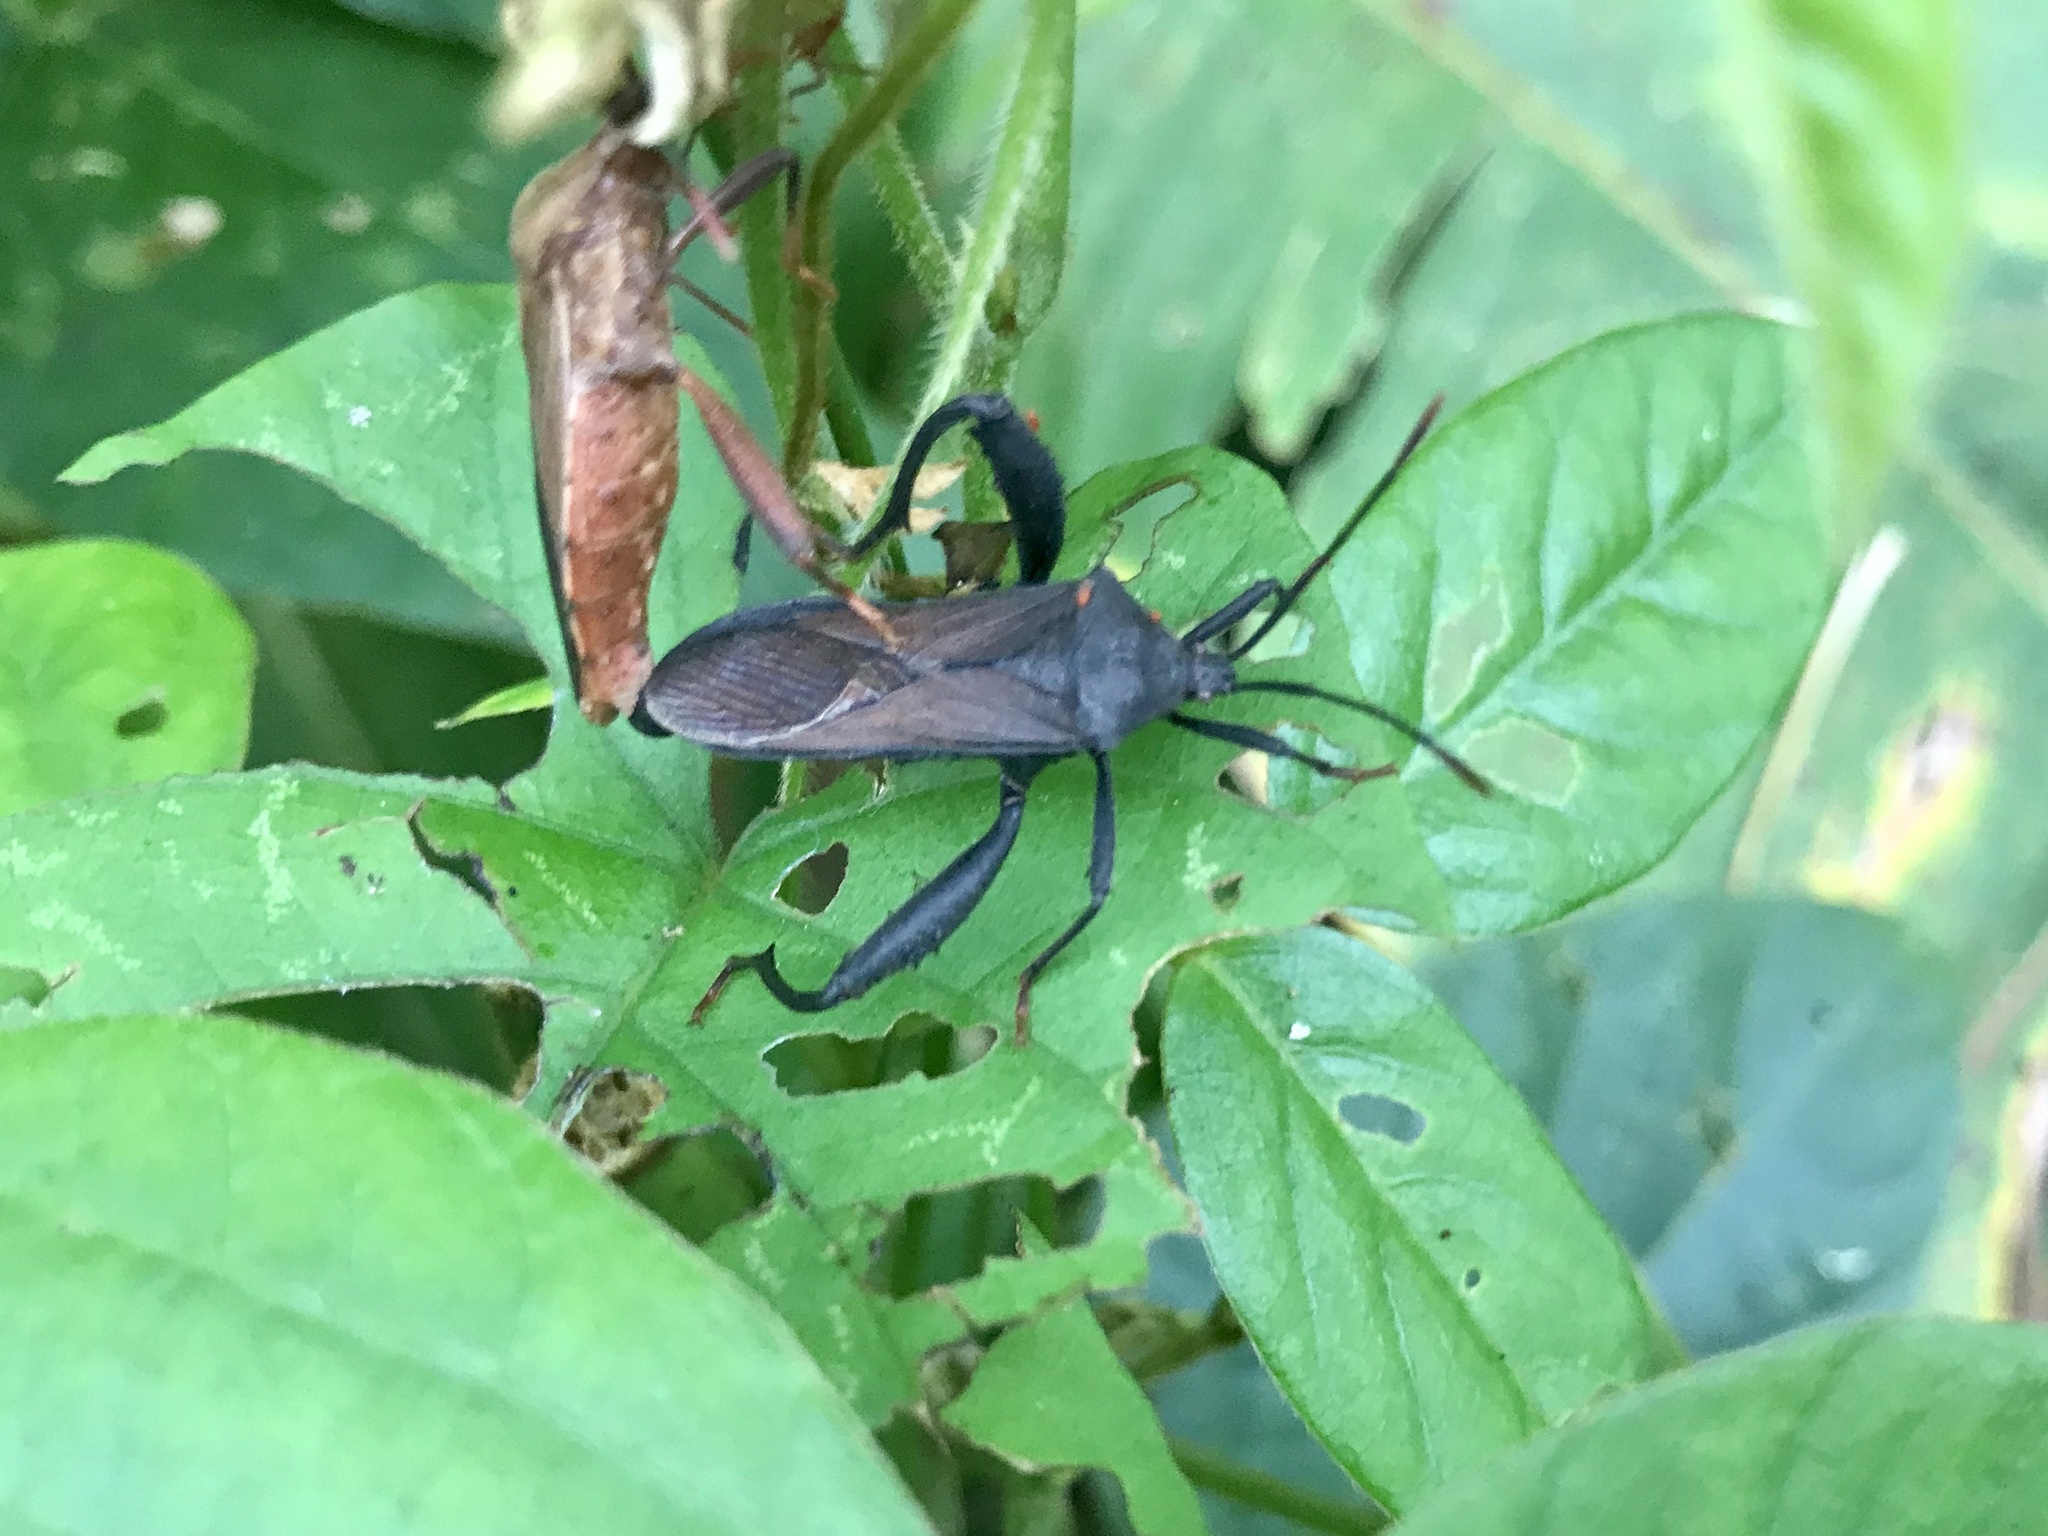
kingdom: Animalia
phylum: Arthropoda
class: Insecta
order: Hemiptera
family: Coreidae
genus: Piezogaster
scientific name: Piezogaster odiosus
